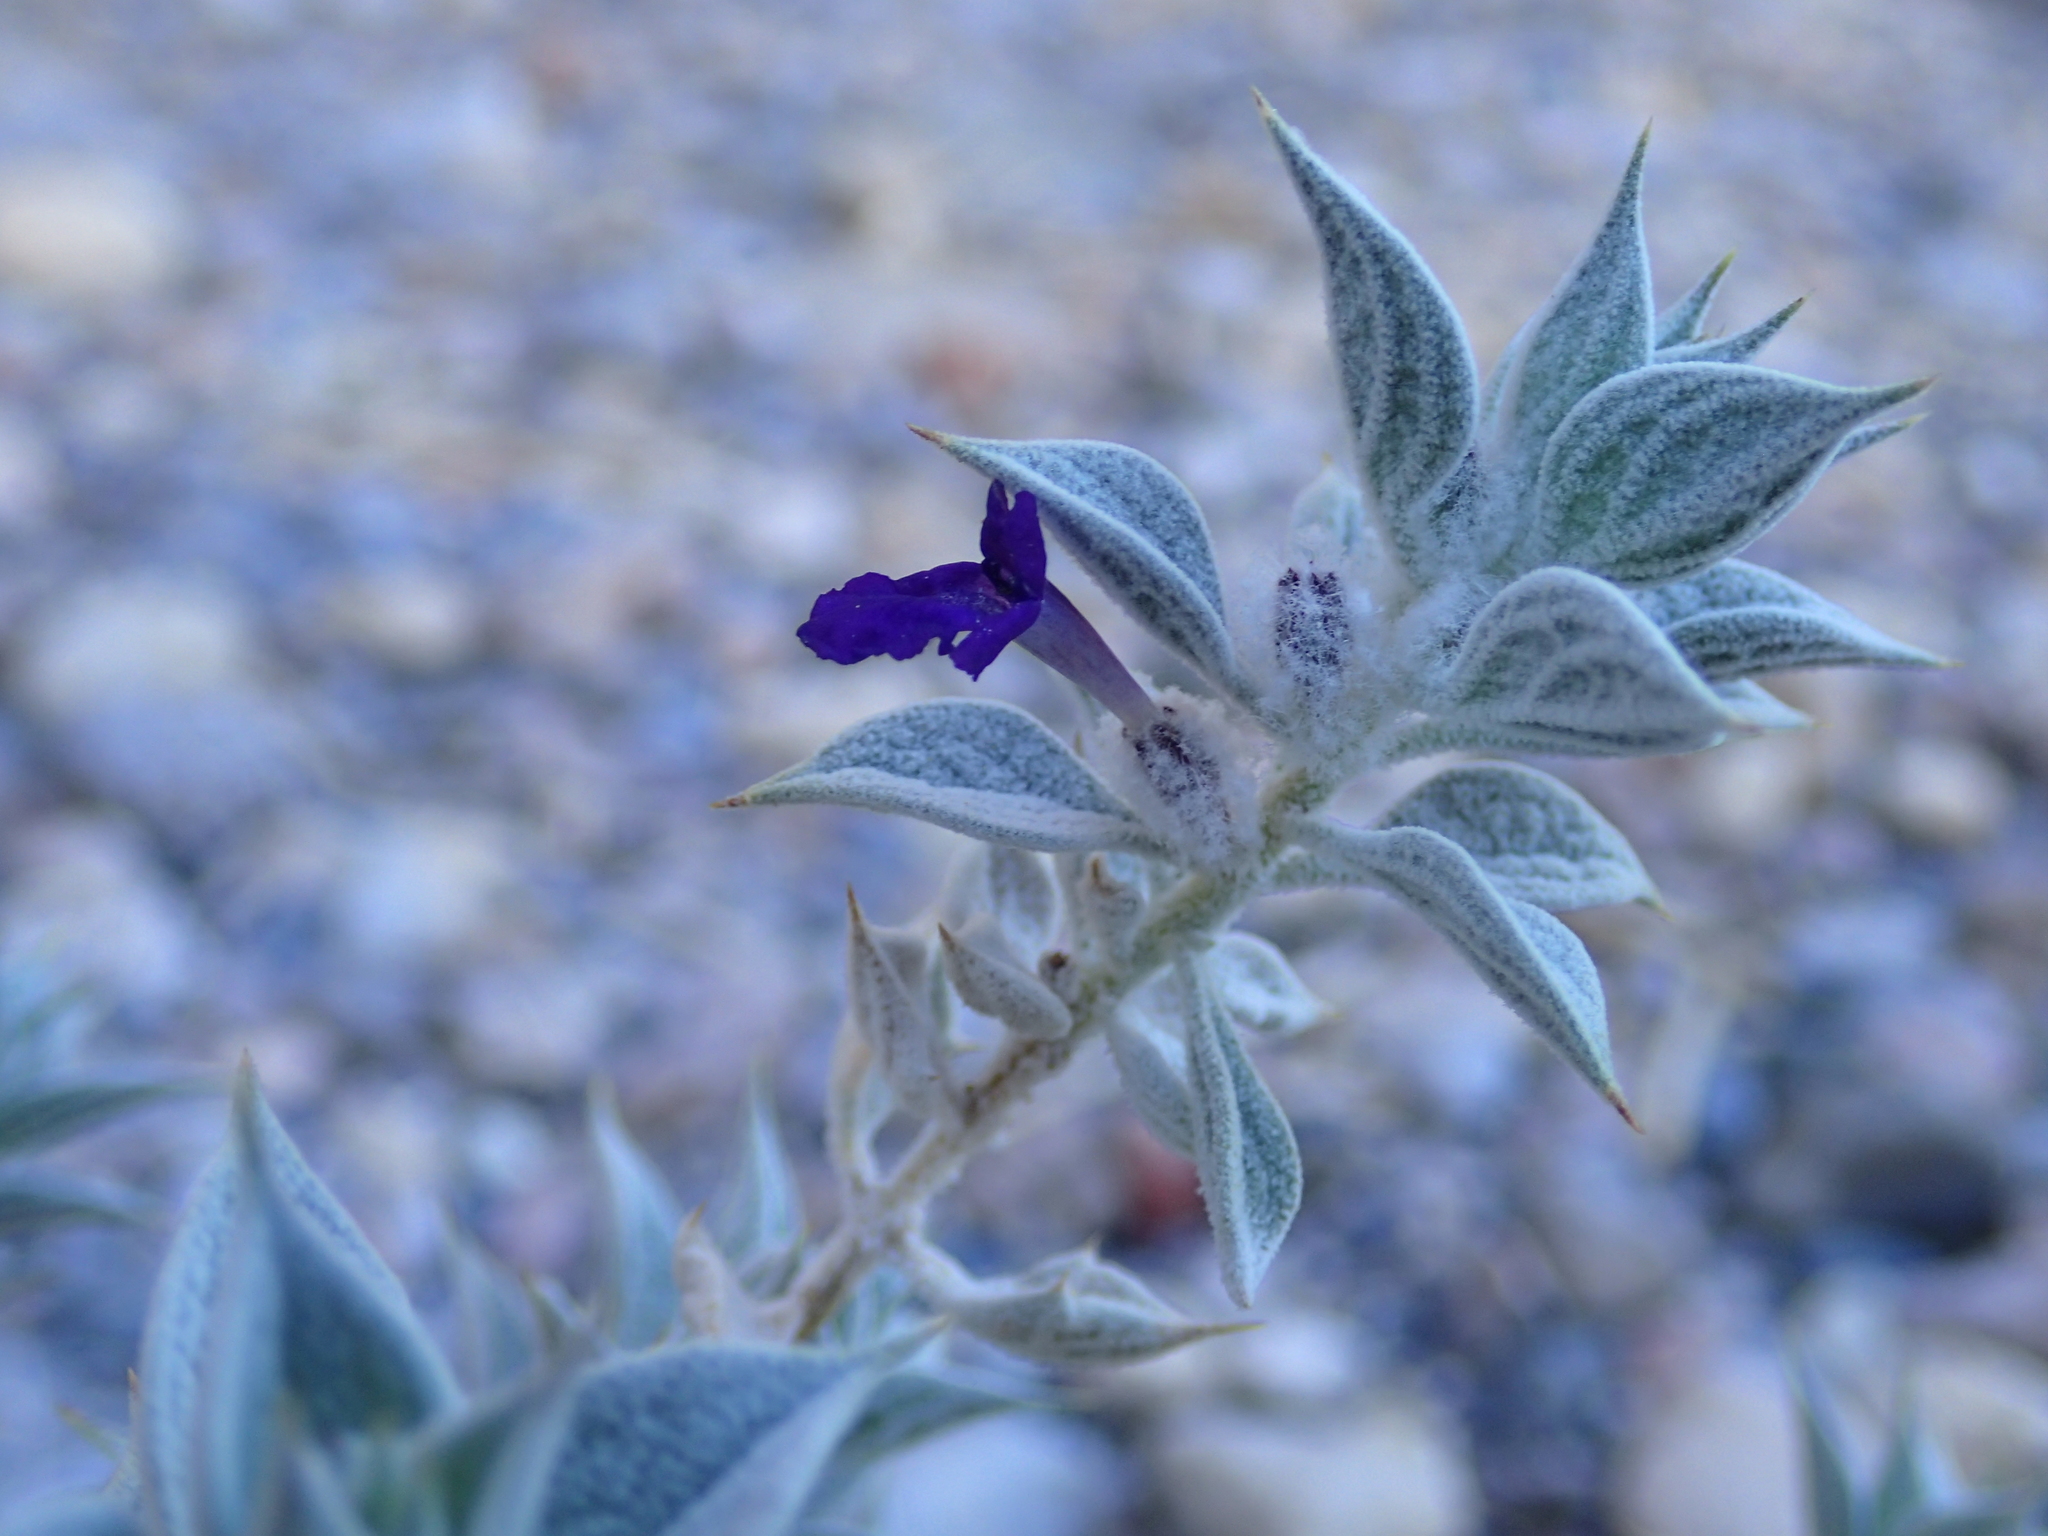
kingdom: Plantae
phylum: Tracheophyta
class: Magnoliopsida
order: Lamiales
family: Lamiaceae
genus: Salvia
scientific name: Salvia funerea
